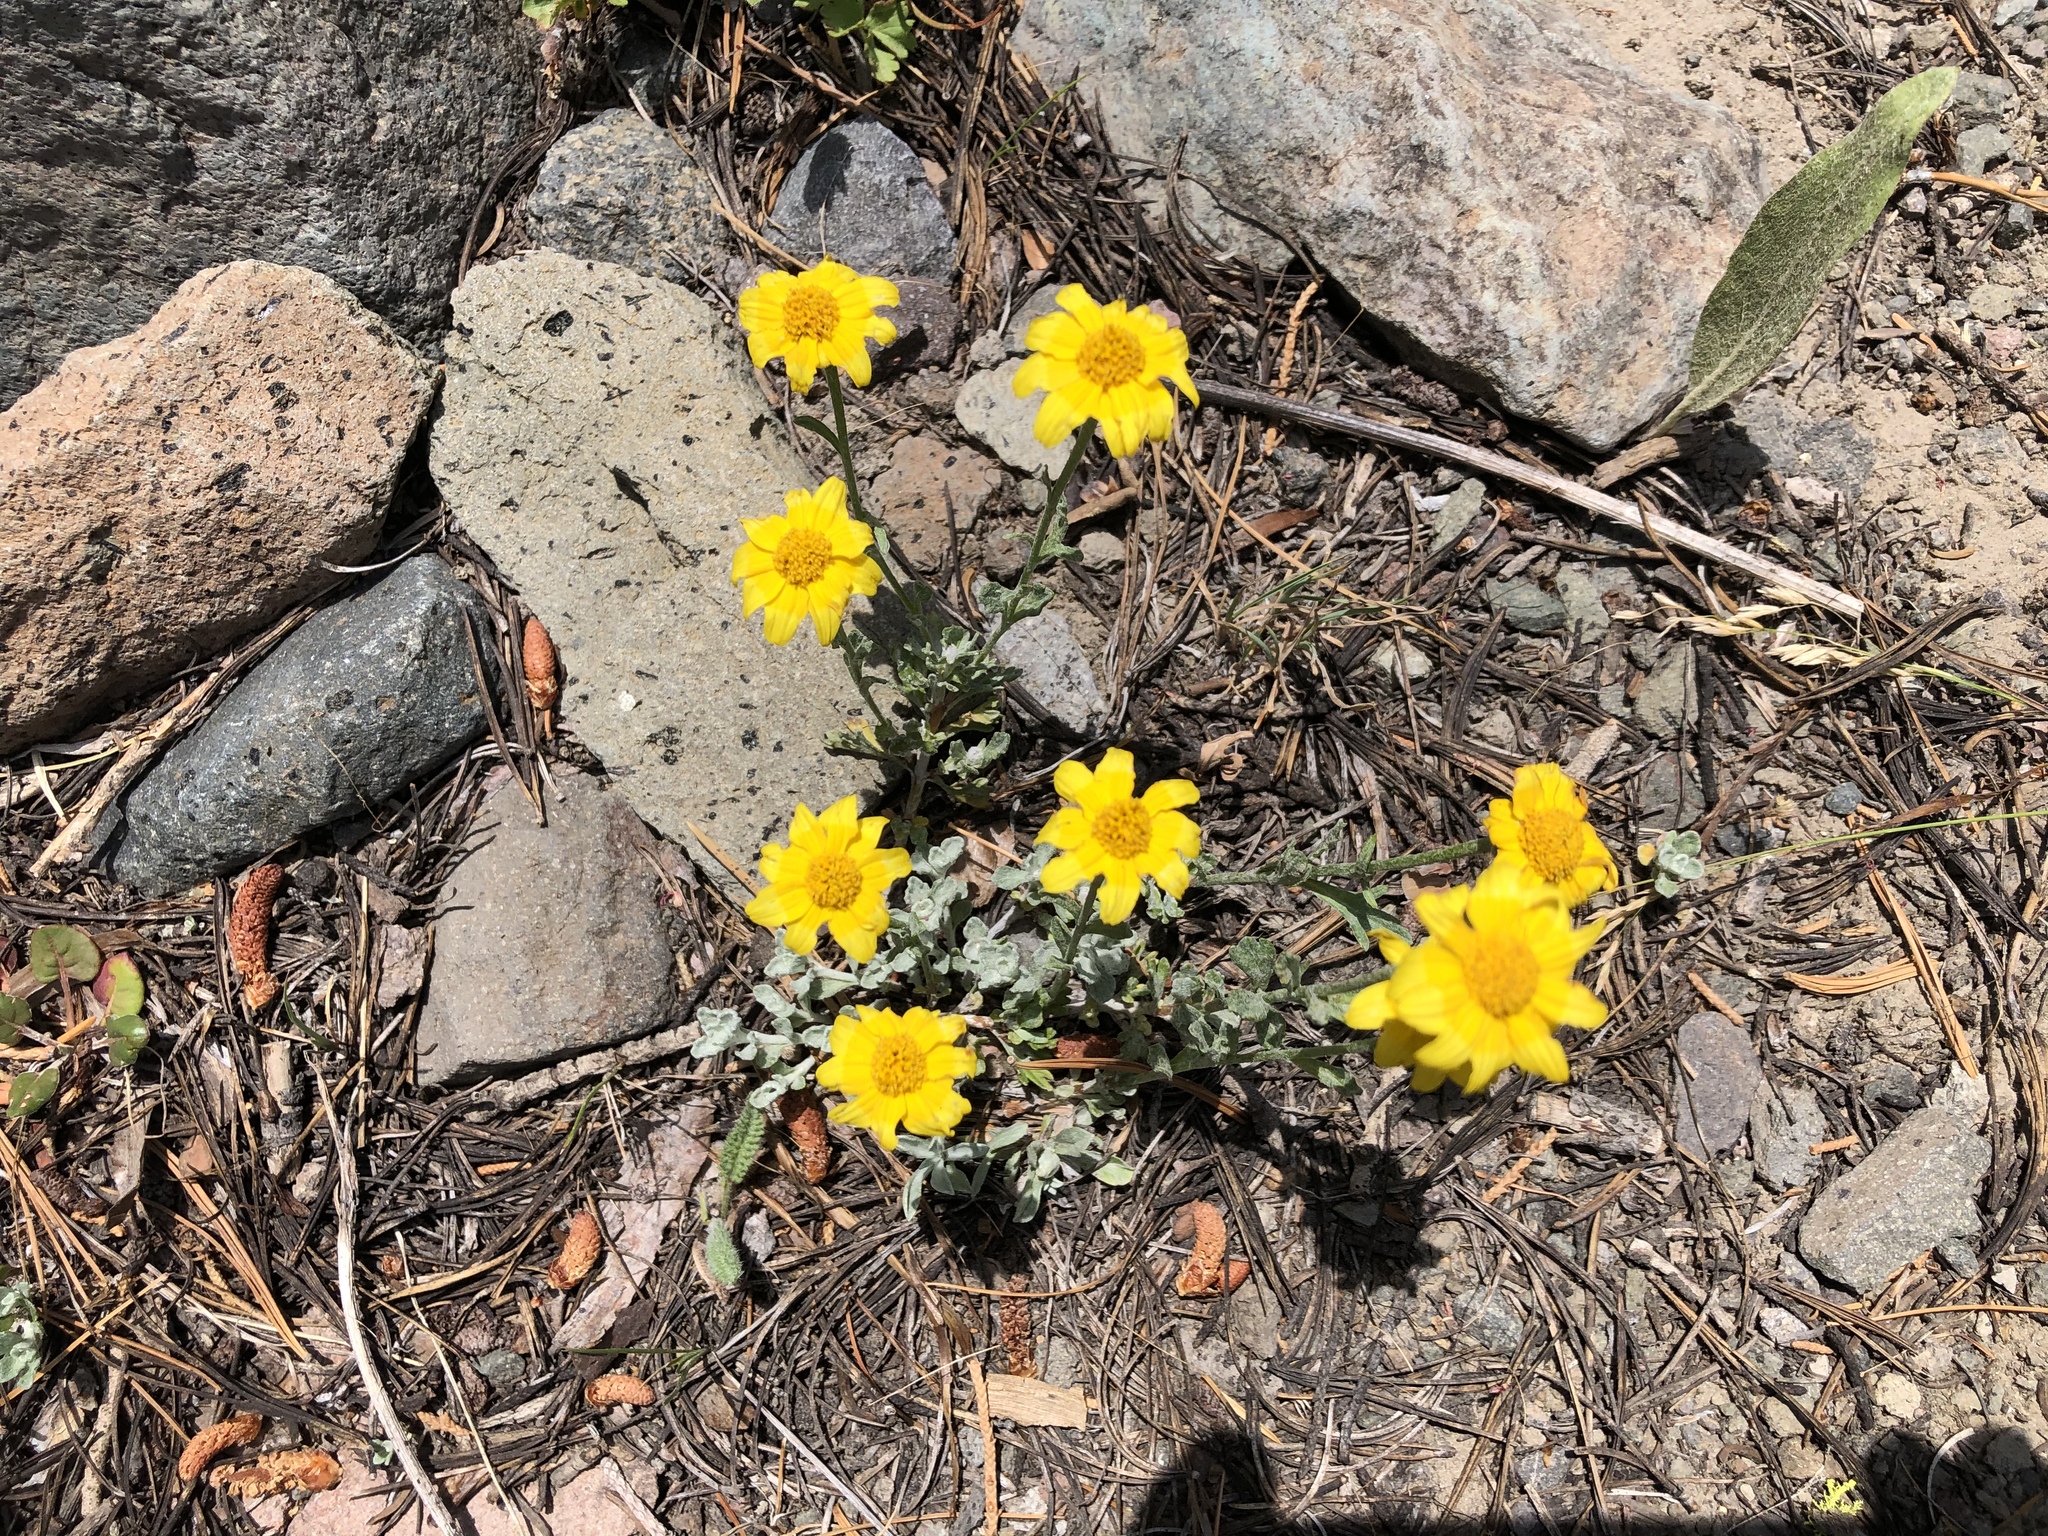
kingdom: Plantae
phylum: Tracheophyta
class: Magnoliopsida
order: Asterales
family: Asteraceae
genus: Eriophyllum
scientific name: Eriophyllum lanatum
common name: Common woolly-sunflower
